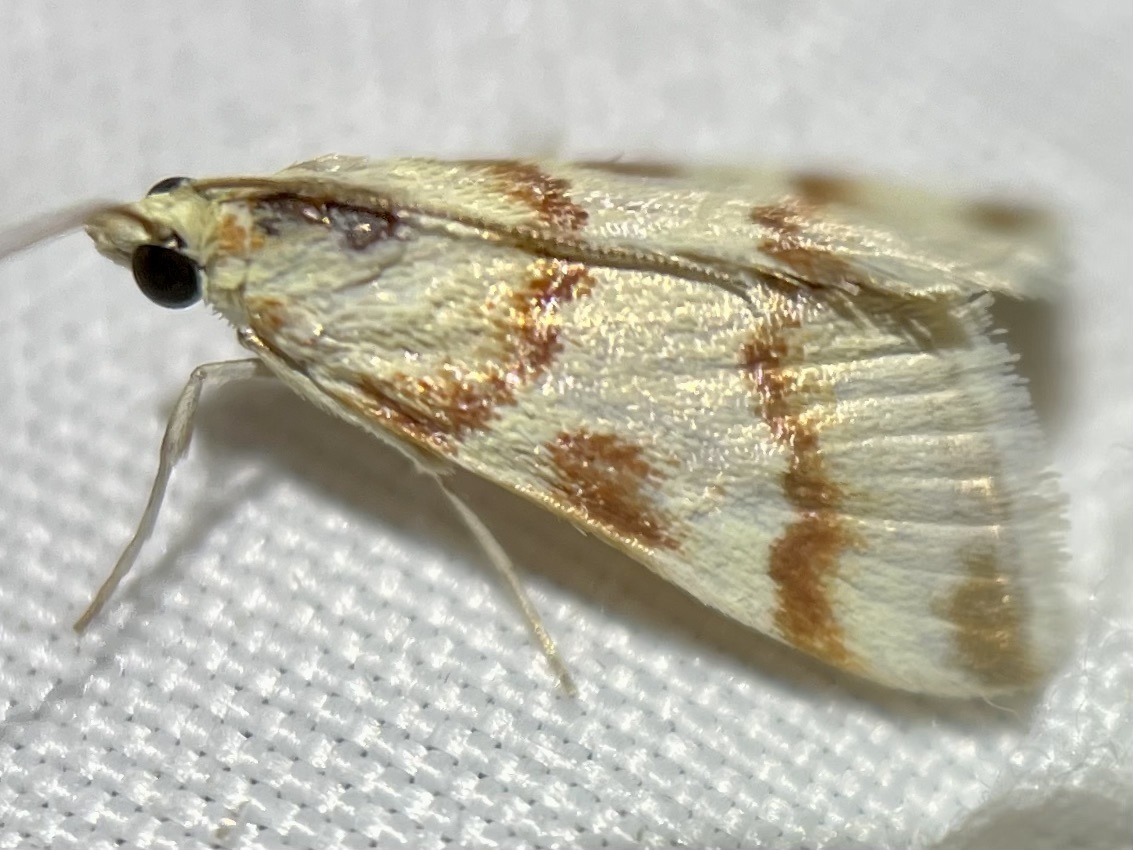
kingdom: Animalia
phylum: Arthropoda
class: Insecta
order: Lepidoptera
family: Crambidae
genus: Noctuelia
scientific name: Noctuelia Mimoschinia rufofascialis
